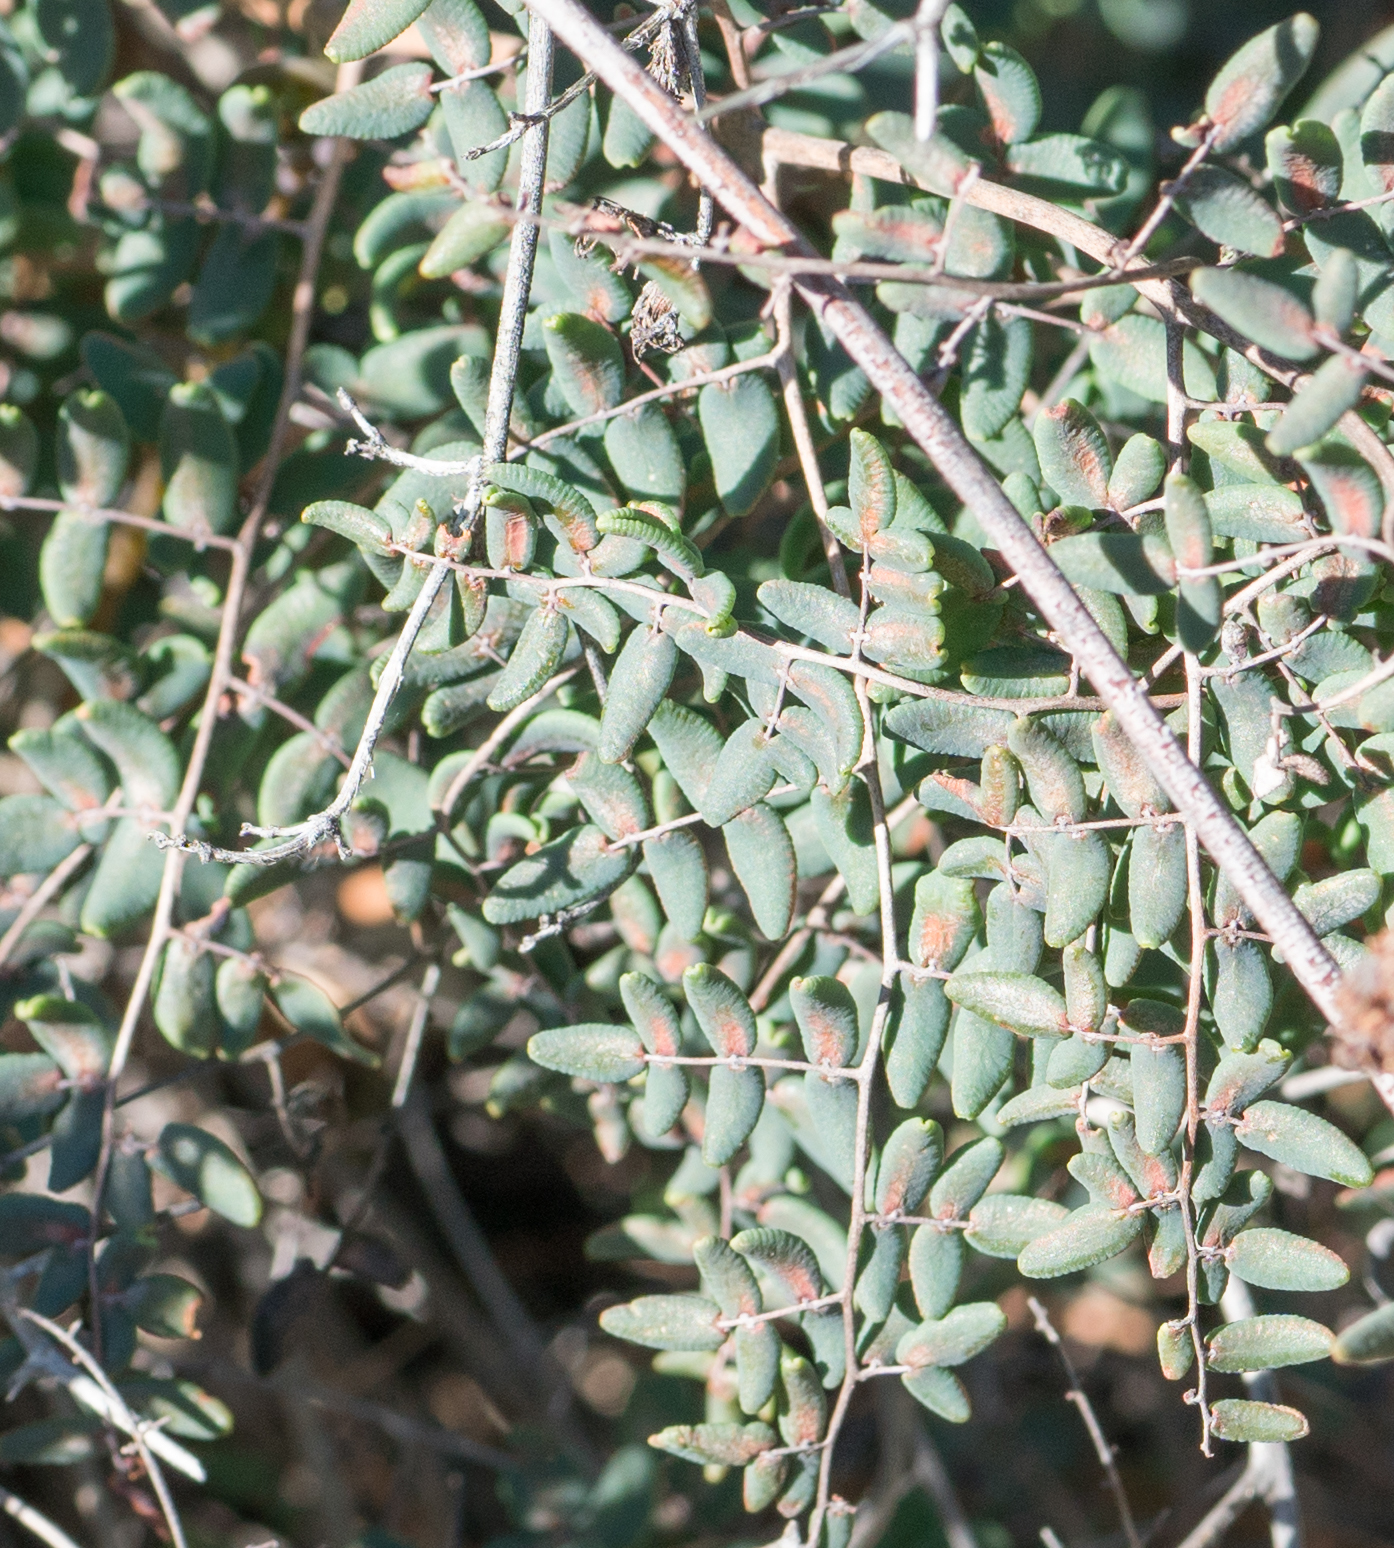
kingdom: Plantae
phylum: Tracheophyta
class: Polypodiopsida
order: Polypodiales
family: Pteridaceae
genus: Pellaea
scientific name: Pellaea andromedifolia
